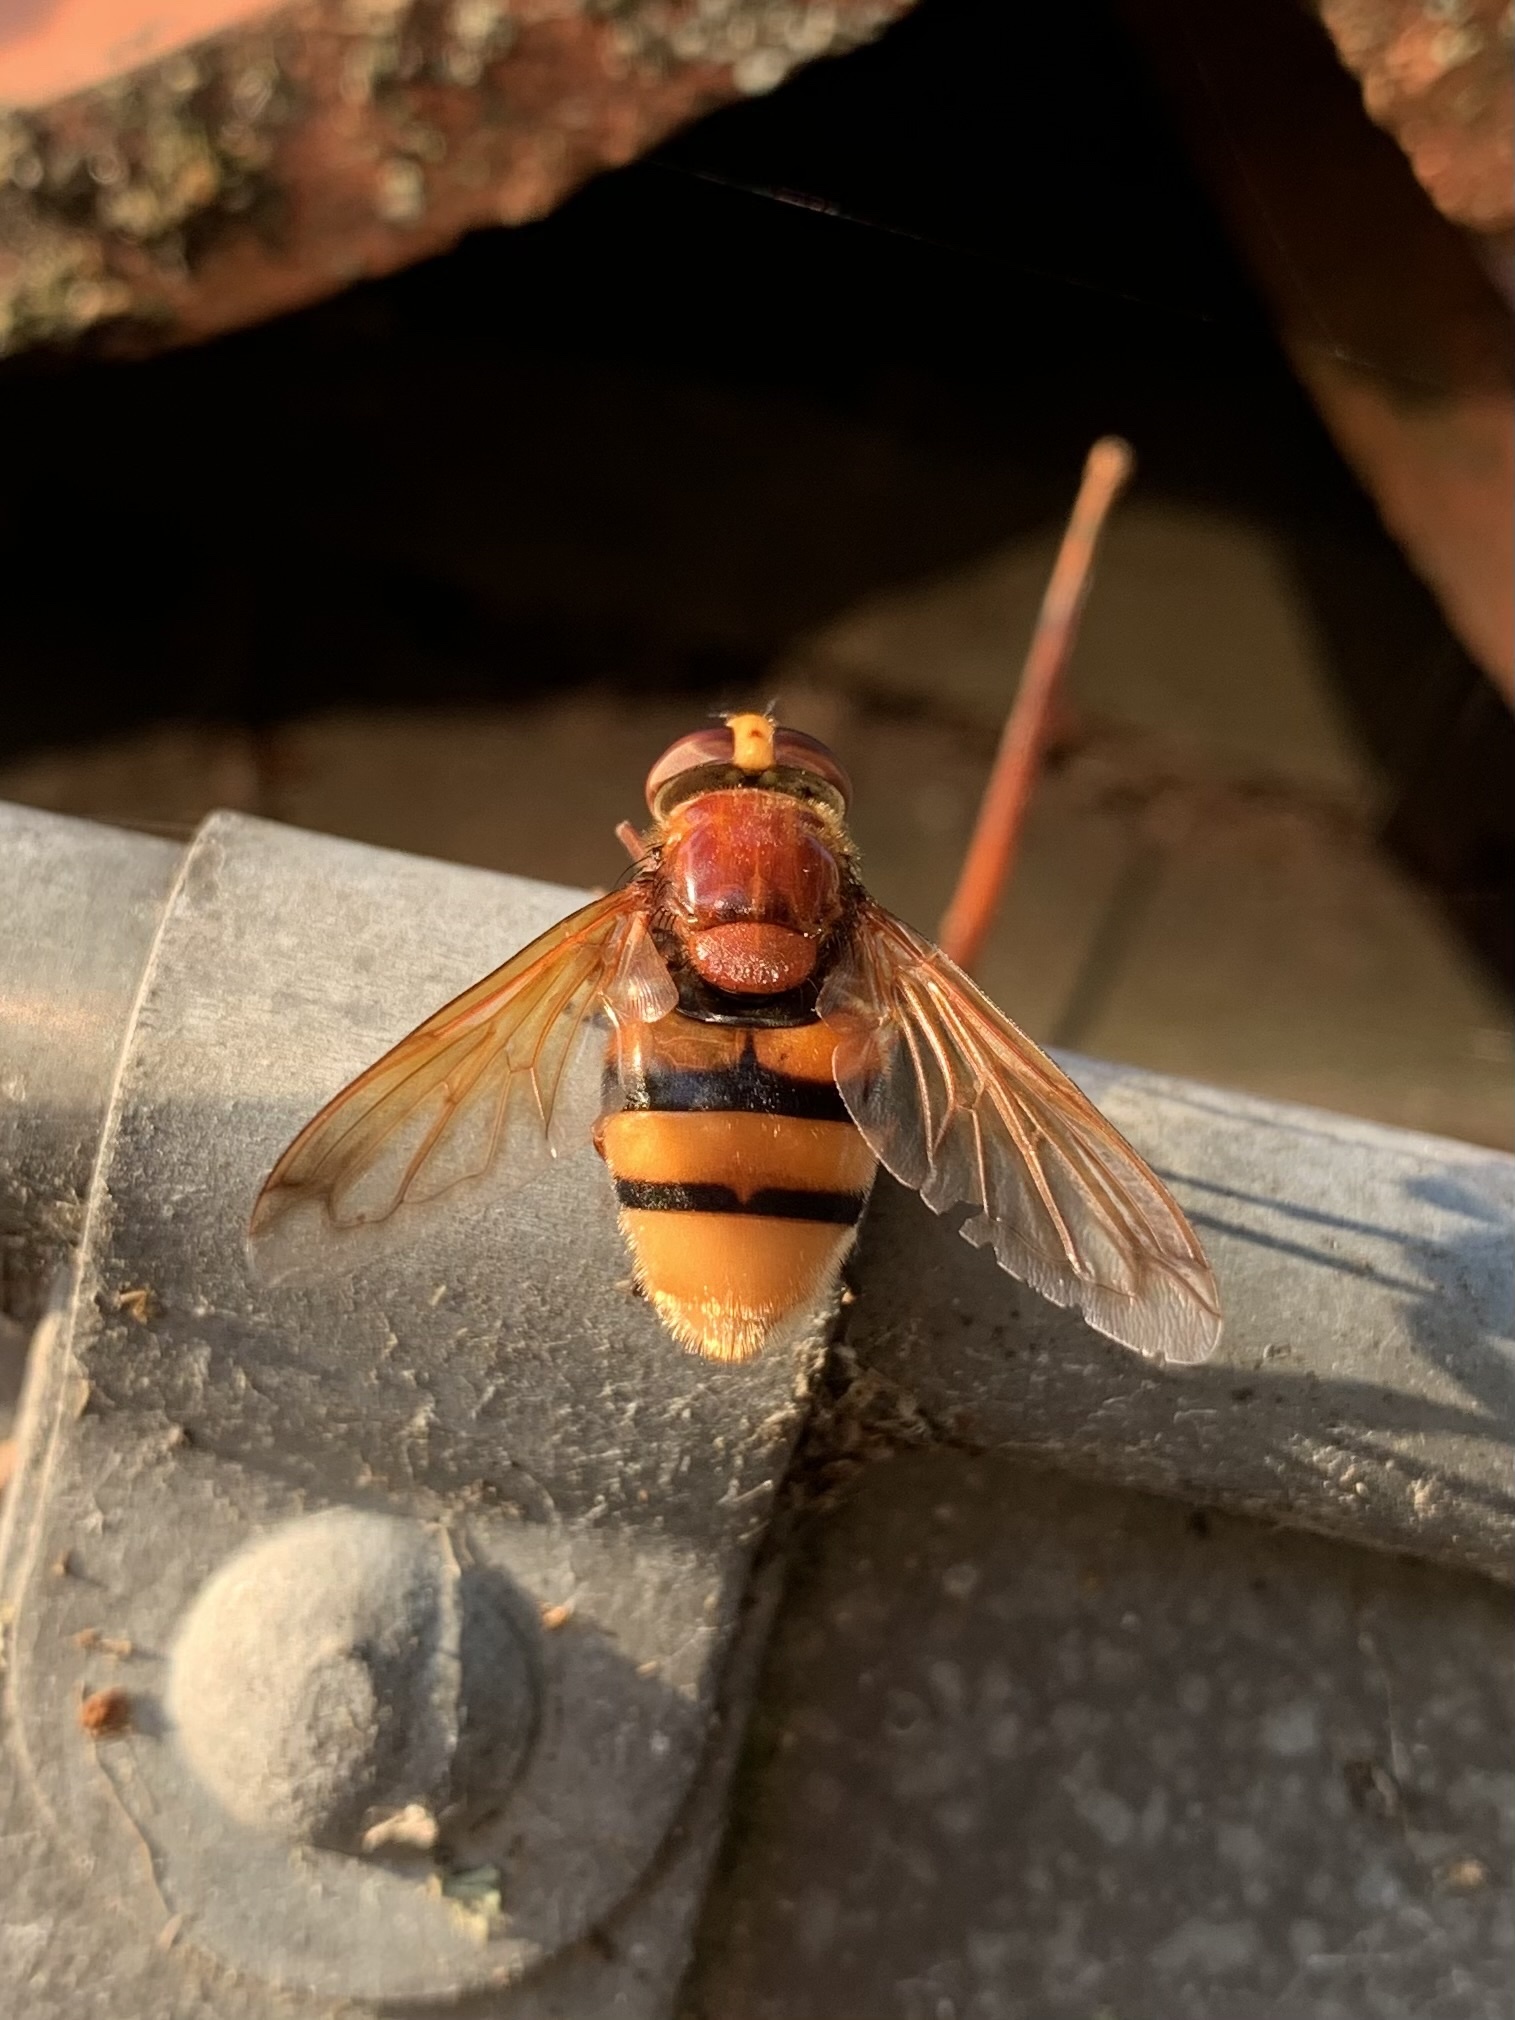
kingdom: Animalia
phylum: Arthropoda
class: Insecta
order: Diptera
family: Syrphidae
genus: Volucella
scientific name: Volucella zonaria
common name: Hornet hoverfly
